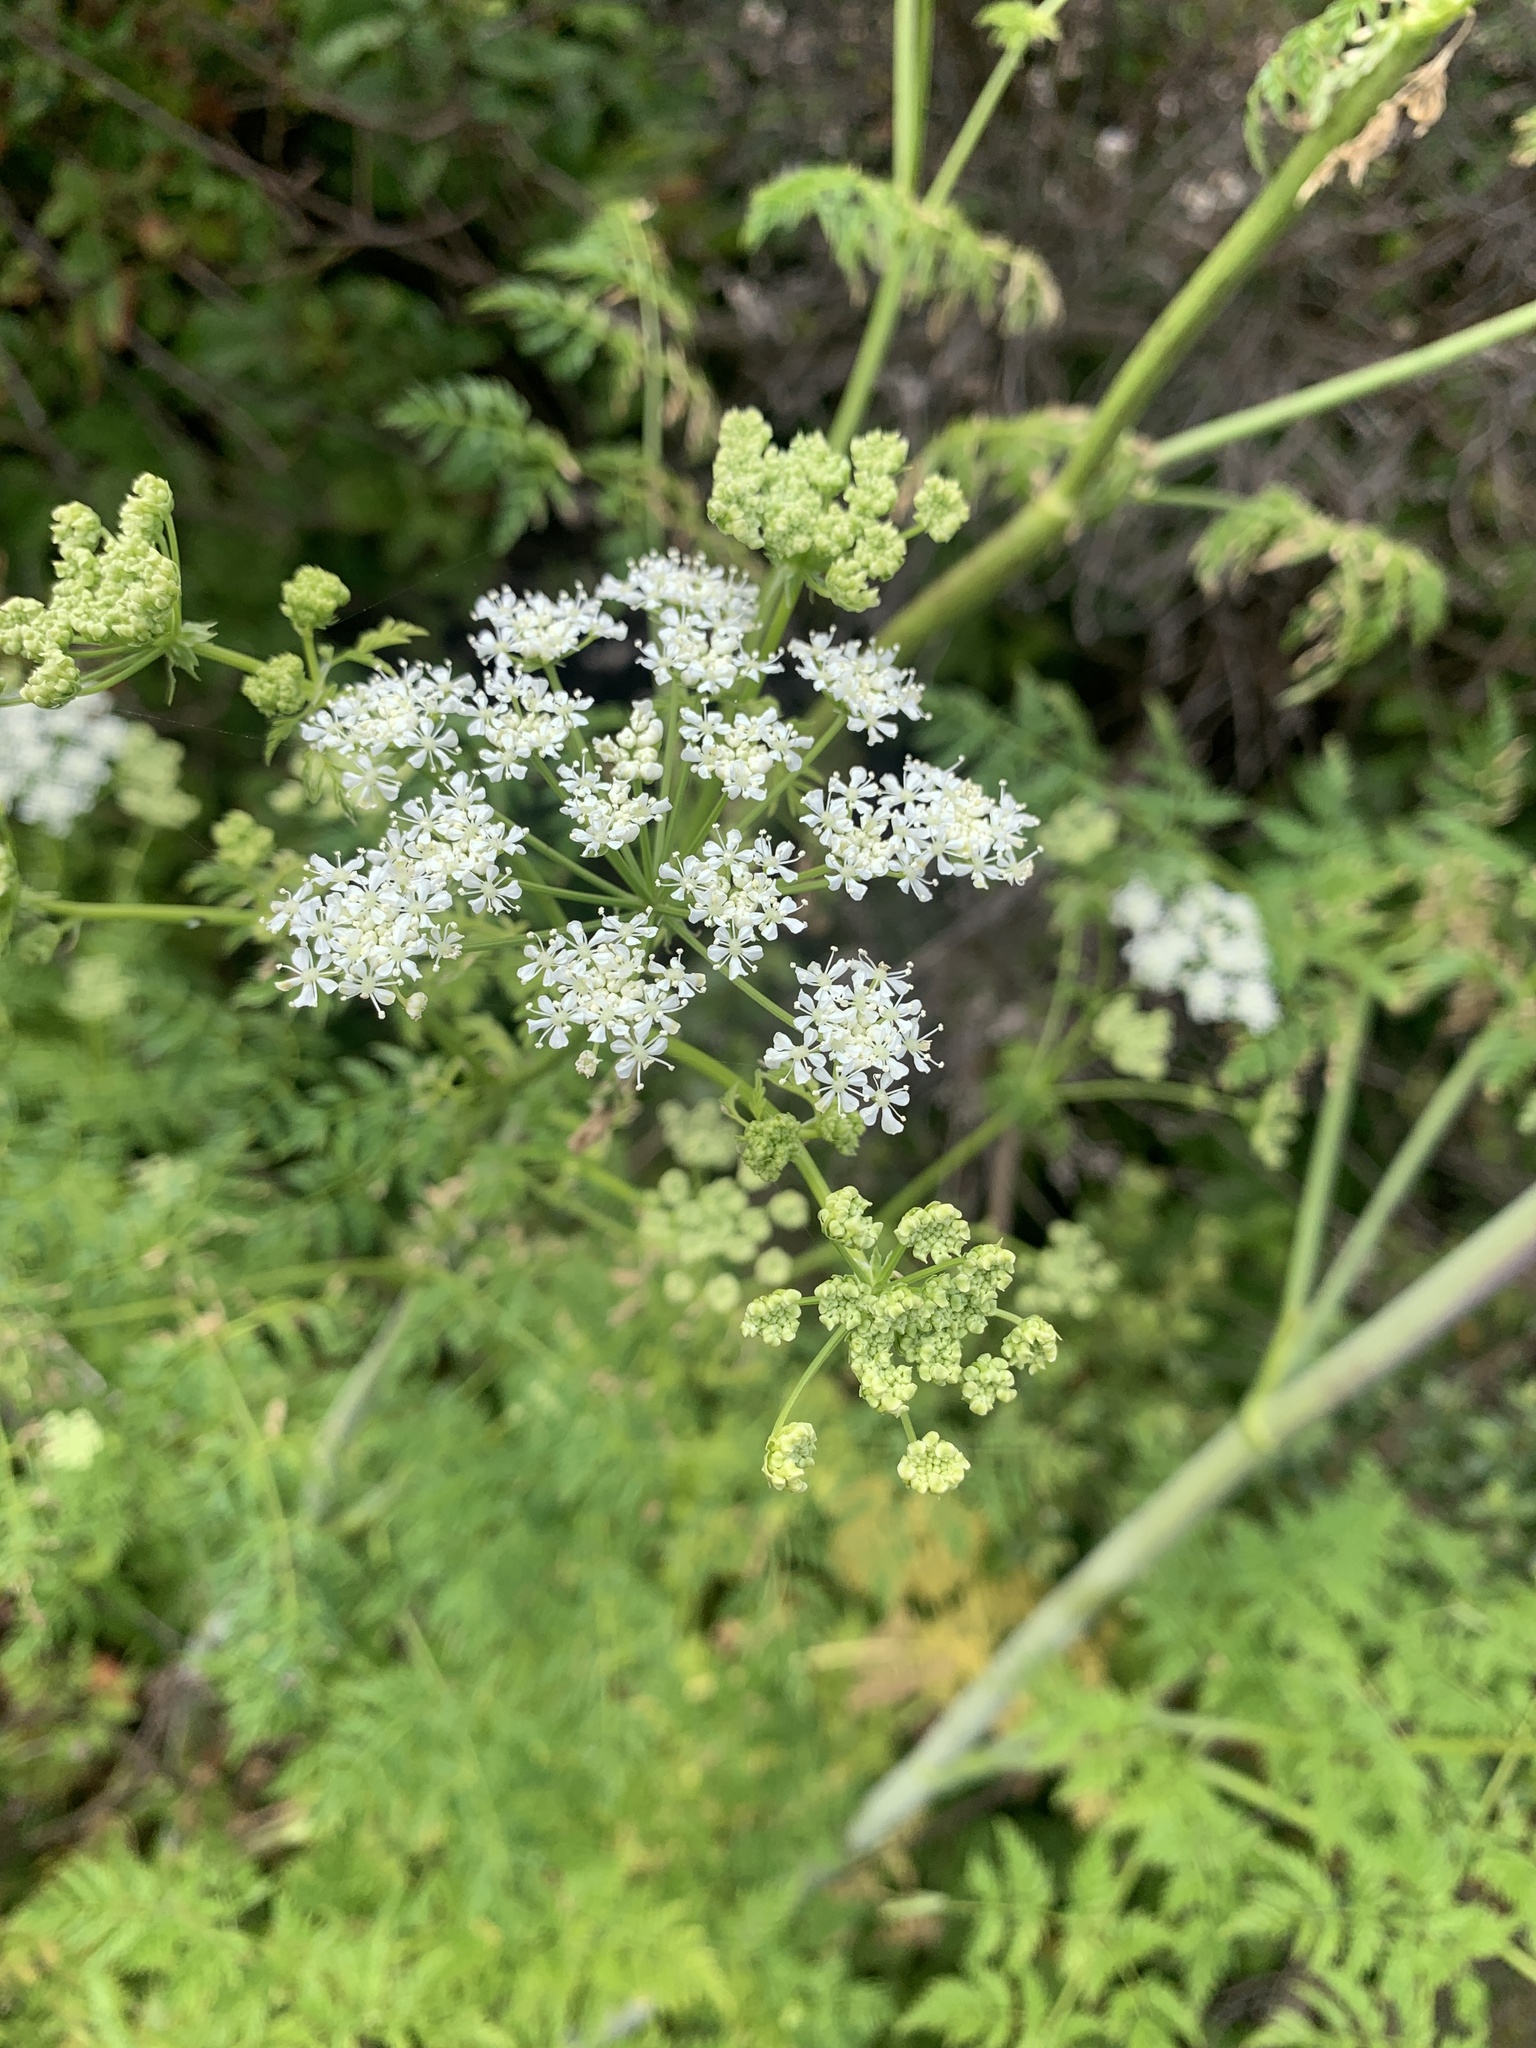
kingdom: Plantae
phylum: Tracheophyta
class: Magnoliopsida
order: Apiales
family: Apiaceae
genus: Conium
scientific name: Conium maculatum
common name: Hemlock
